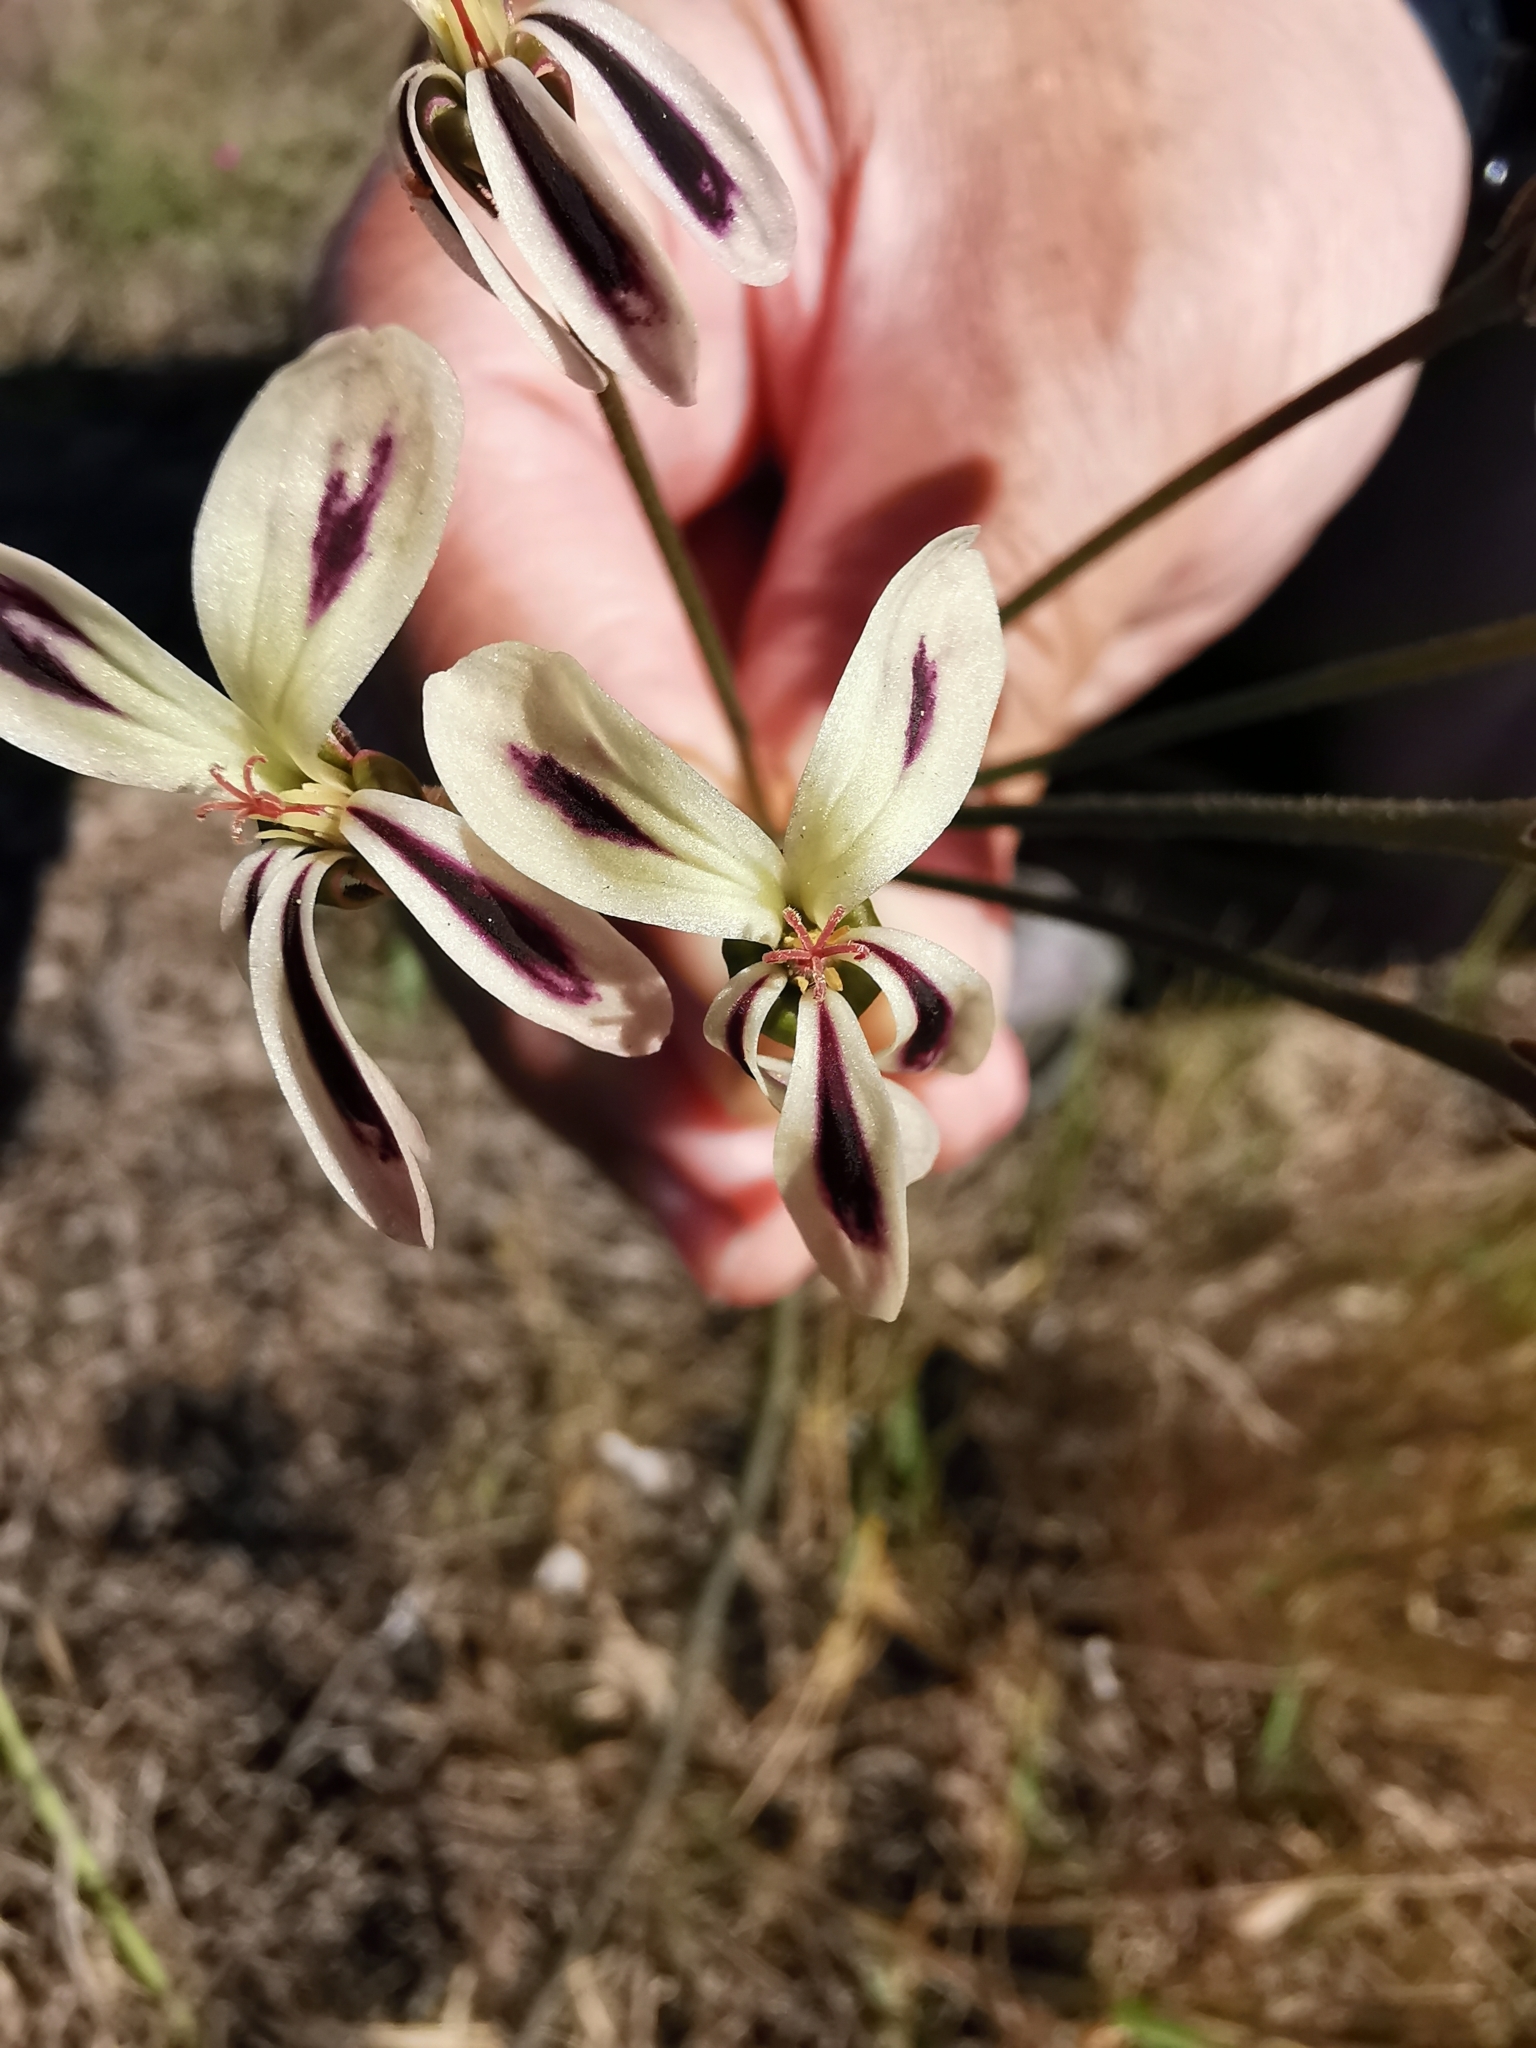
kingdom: Plantae
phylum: Tracheophyta
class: Magnoliopsida
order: Geraniales
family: Geraniaceae
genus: Pelargonium
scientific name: Pelargonium triste
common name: Night-scent pelargonium
